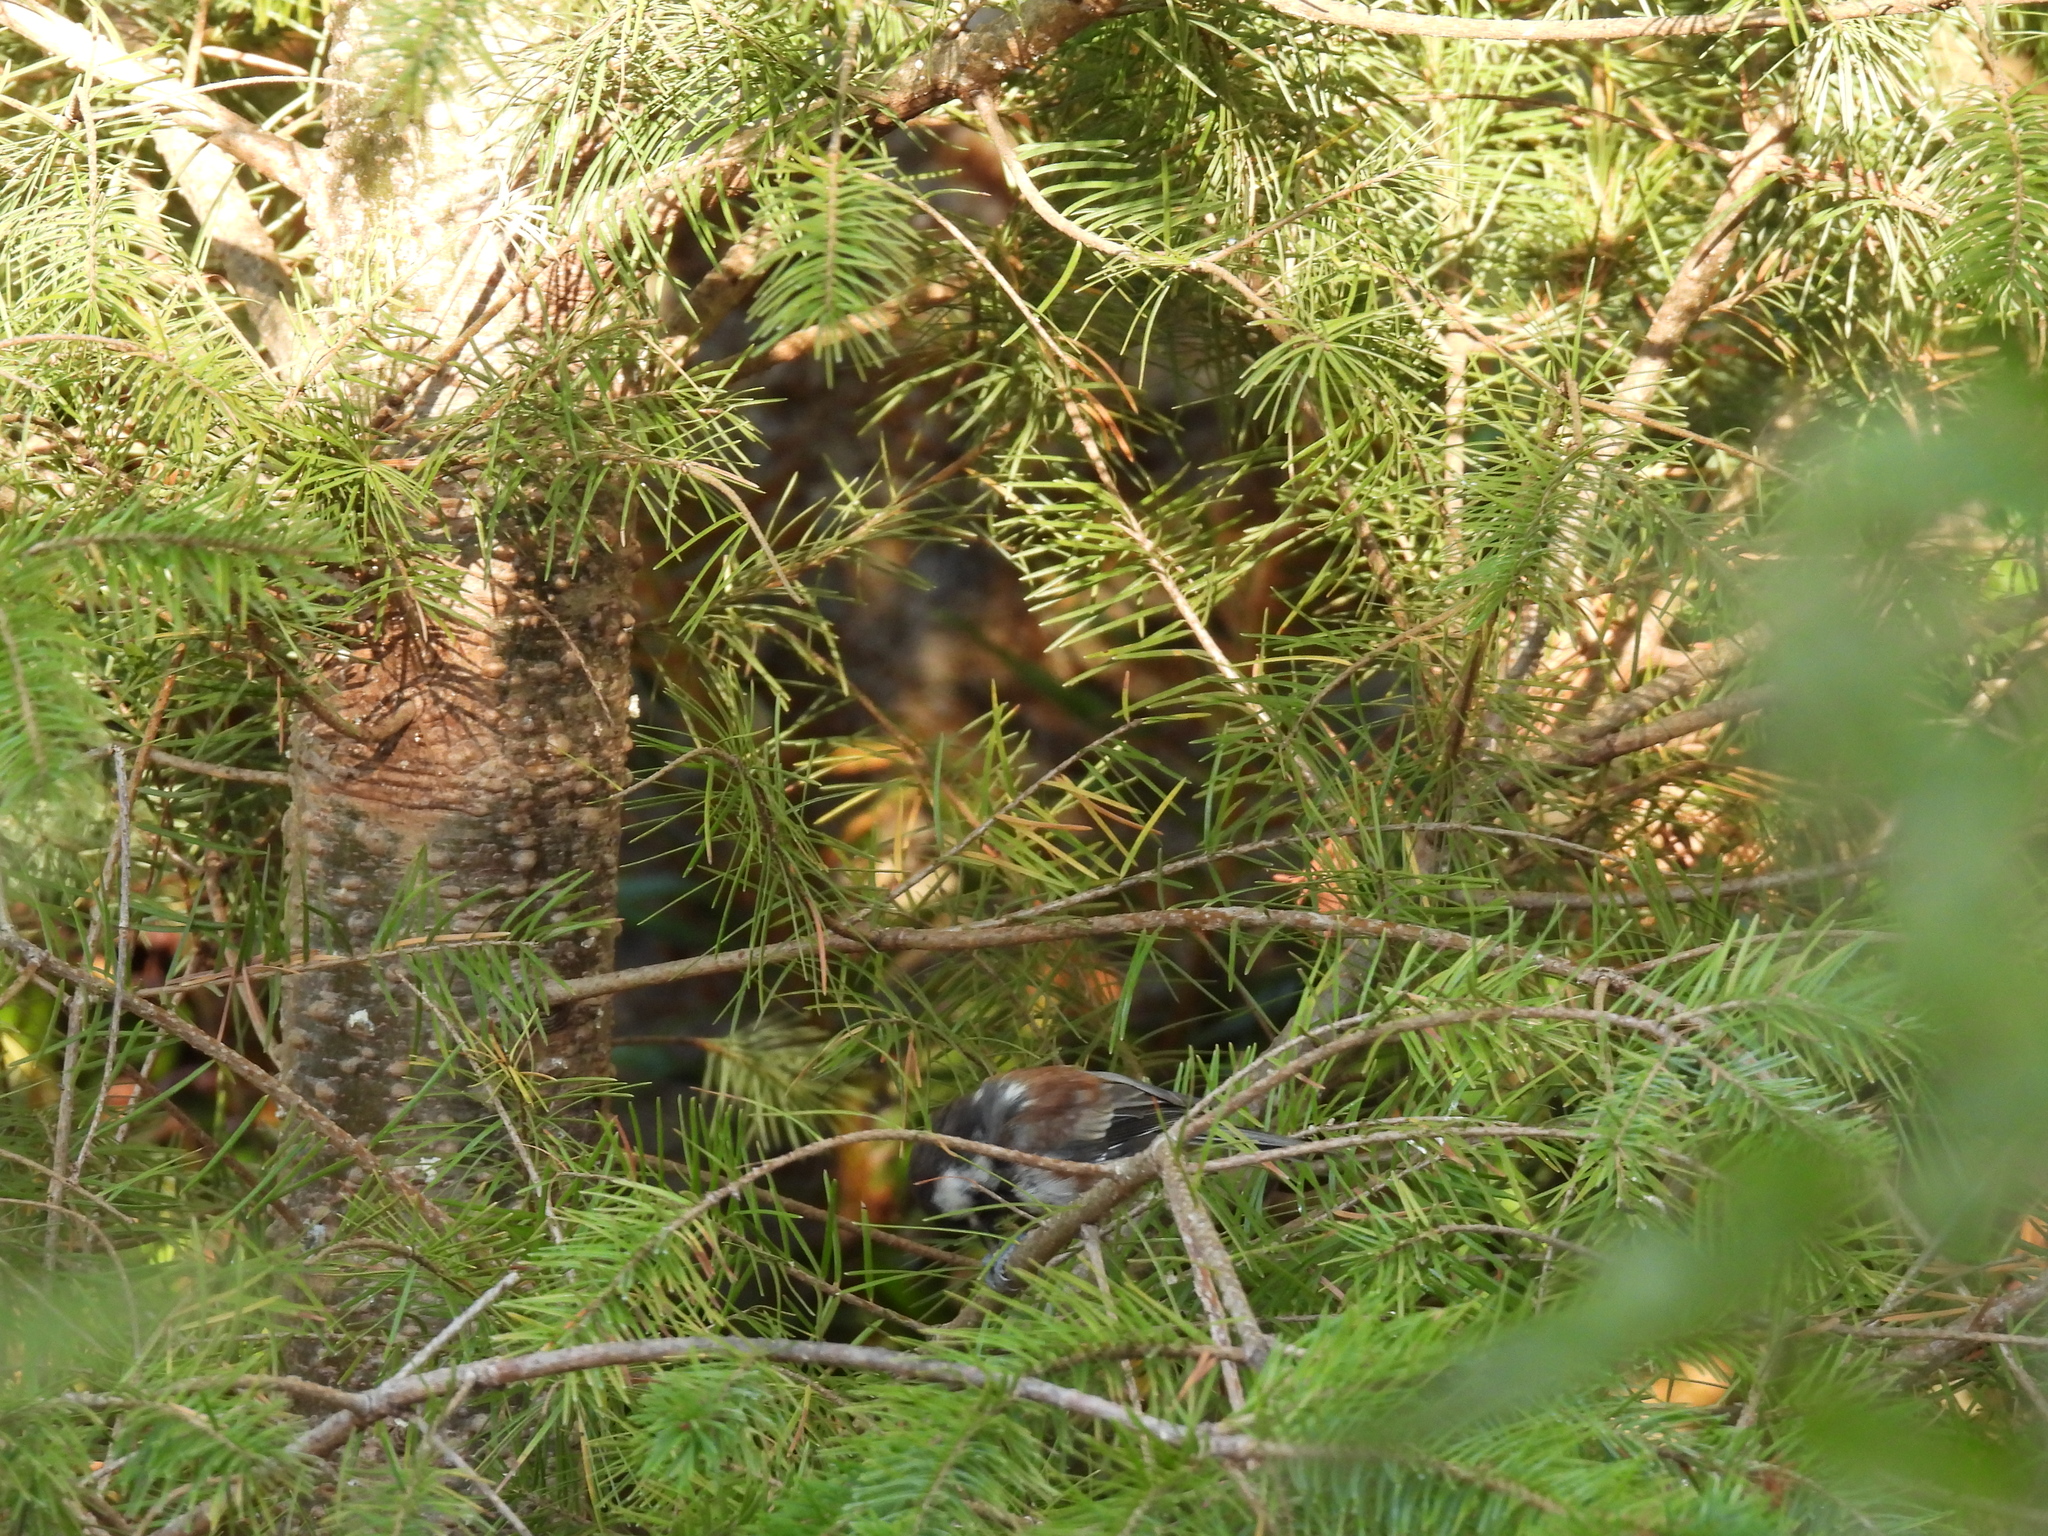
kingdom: Animalia
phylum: Chordata
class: Aves
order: Passeriformes
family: Paridae
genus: Poecile
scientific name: Poecile rufescens
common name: Chestnut-backed chickadee
